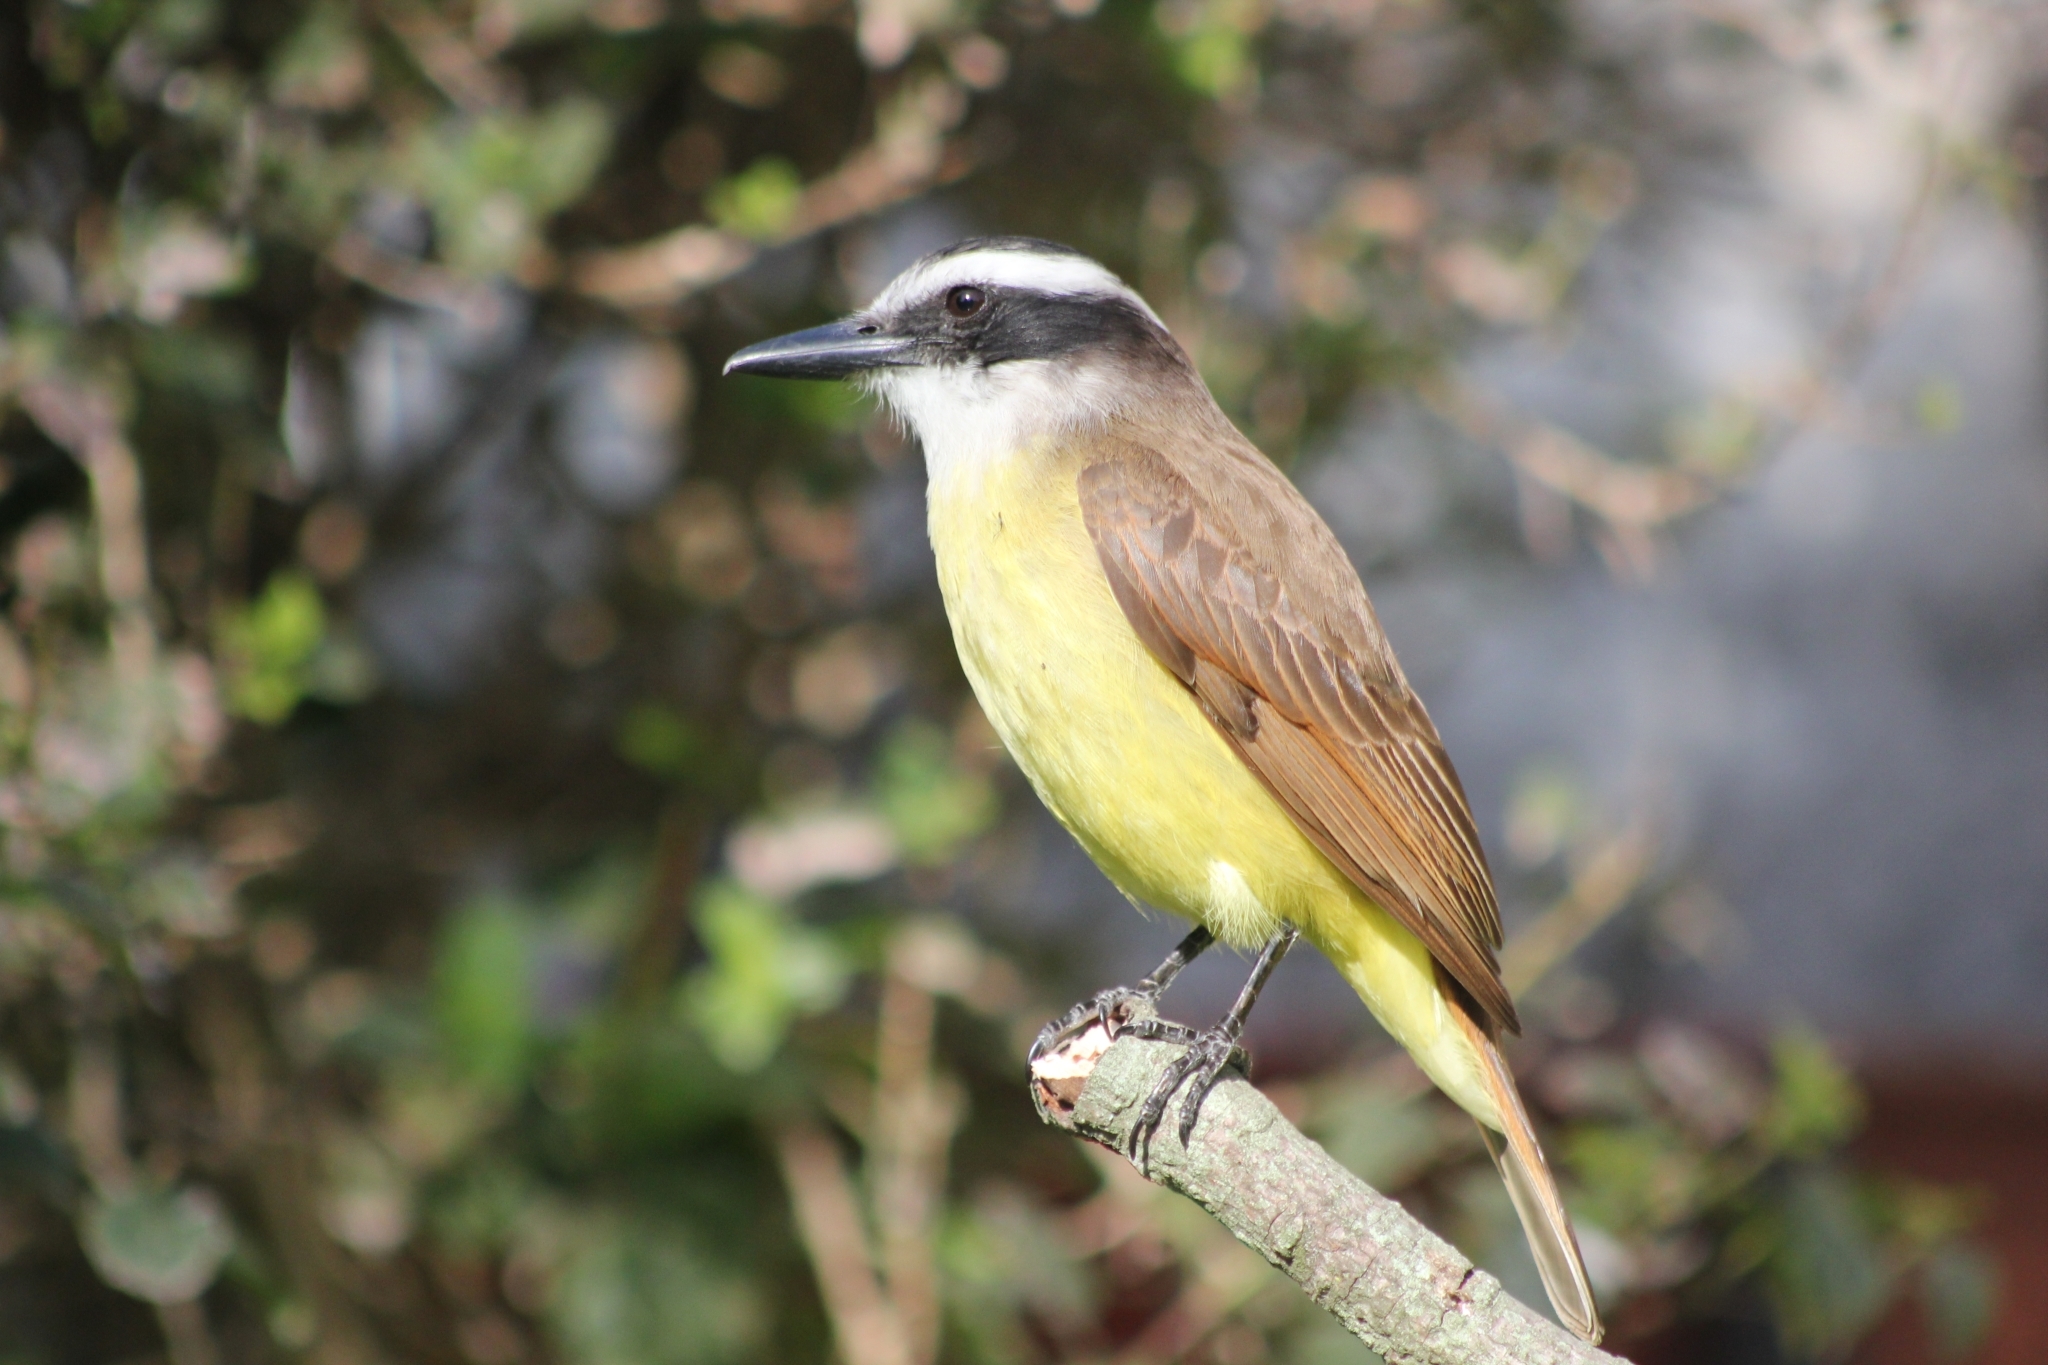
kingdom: Animalia
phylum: Chordata
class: Aves
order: Passeriformes
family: Tyrannidae
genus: Pitangus
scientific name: Pitangus sulphuratus
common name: Great kiskadee
